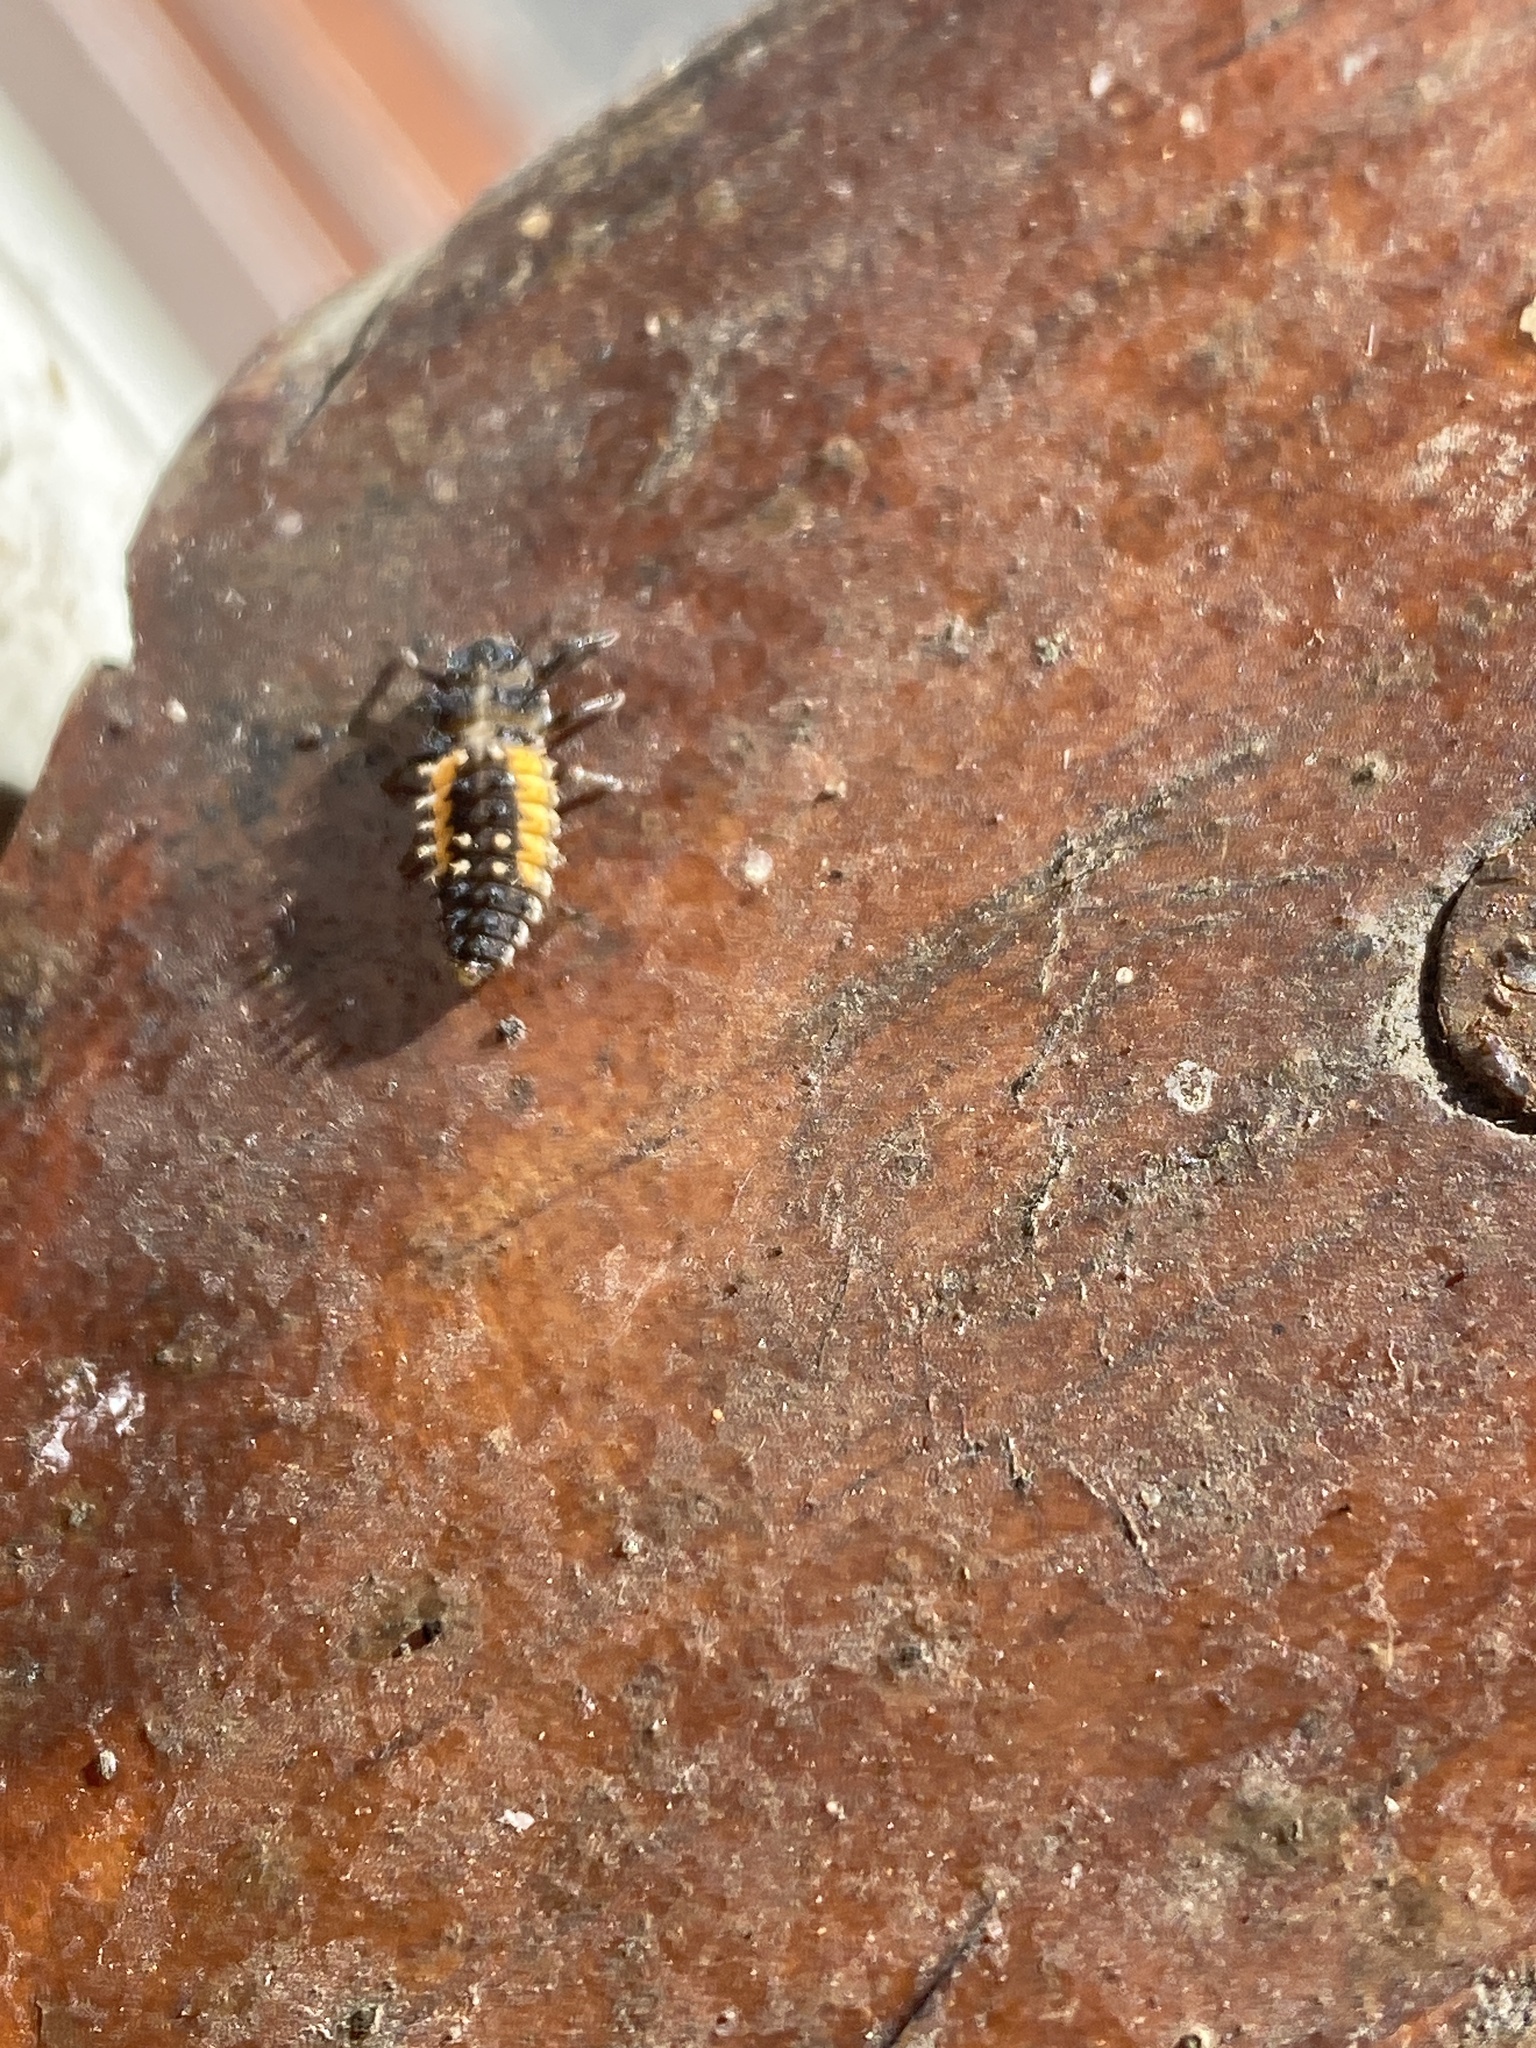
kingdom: Animalia
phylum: Arthropoda
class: Insecta
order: Coleoptera
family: Coccinellidae
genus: Harmonia
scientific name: Harmonia axyridis
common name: Harlequin ladybird
